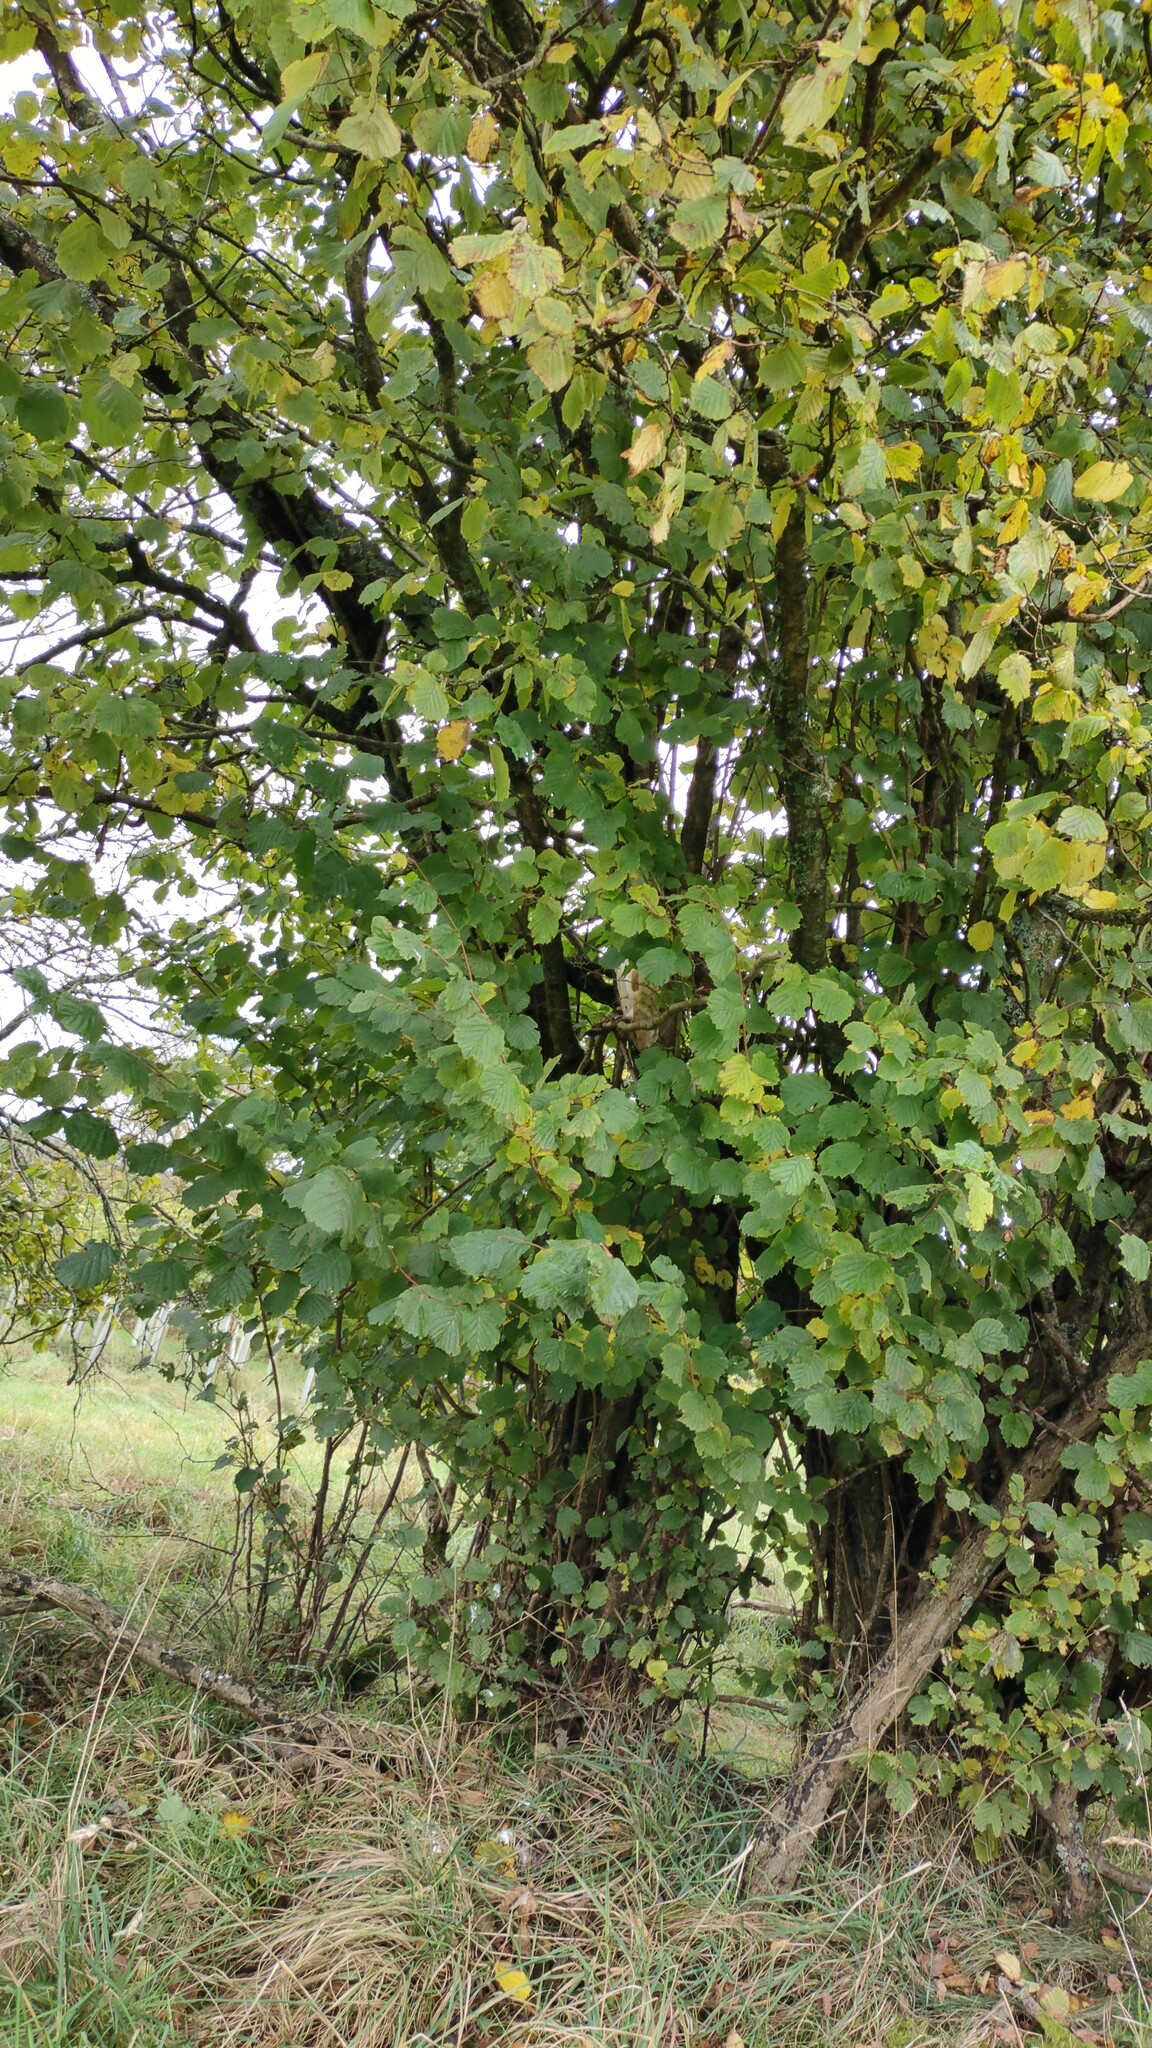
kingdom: Animalia
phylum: Chordata
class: Aves
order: Strigiformes
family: Tytonidae
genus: Tyto
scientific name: Tyto alba
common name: Barn owl
